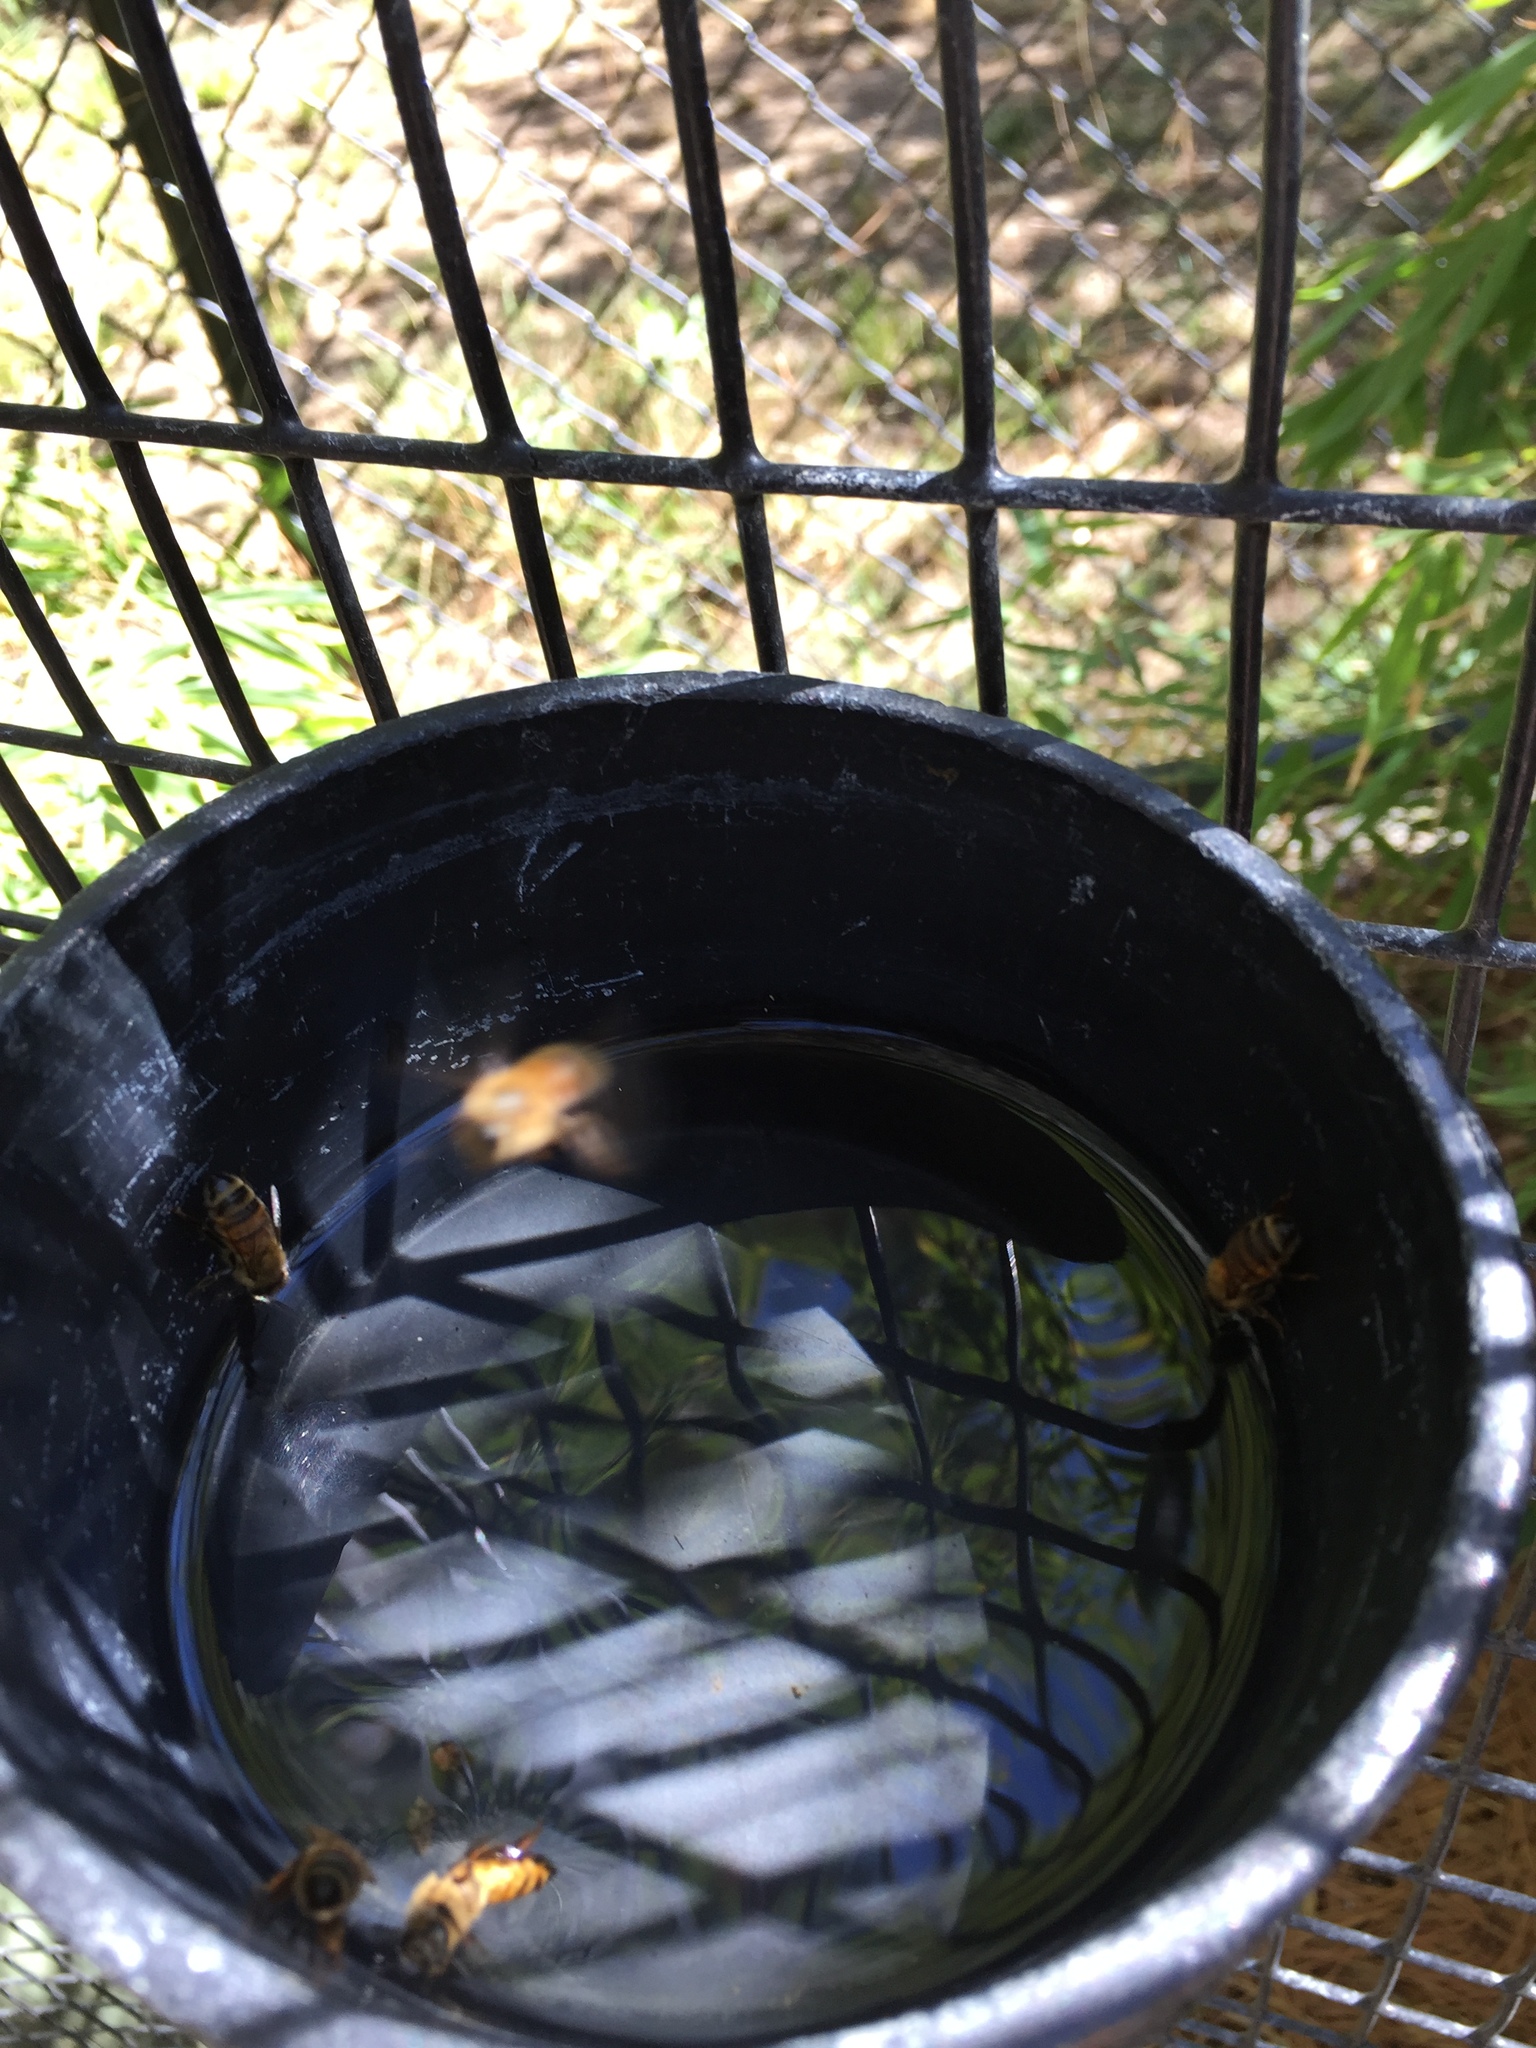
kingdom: Animalia
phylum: Arthropoda
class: Insecta
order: Hymenoptera
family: Apidae
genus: Apis
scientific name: Apis mellifera
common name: Honey bee
